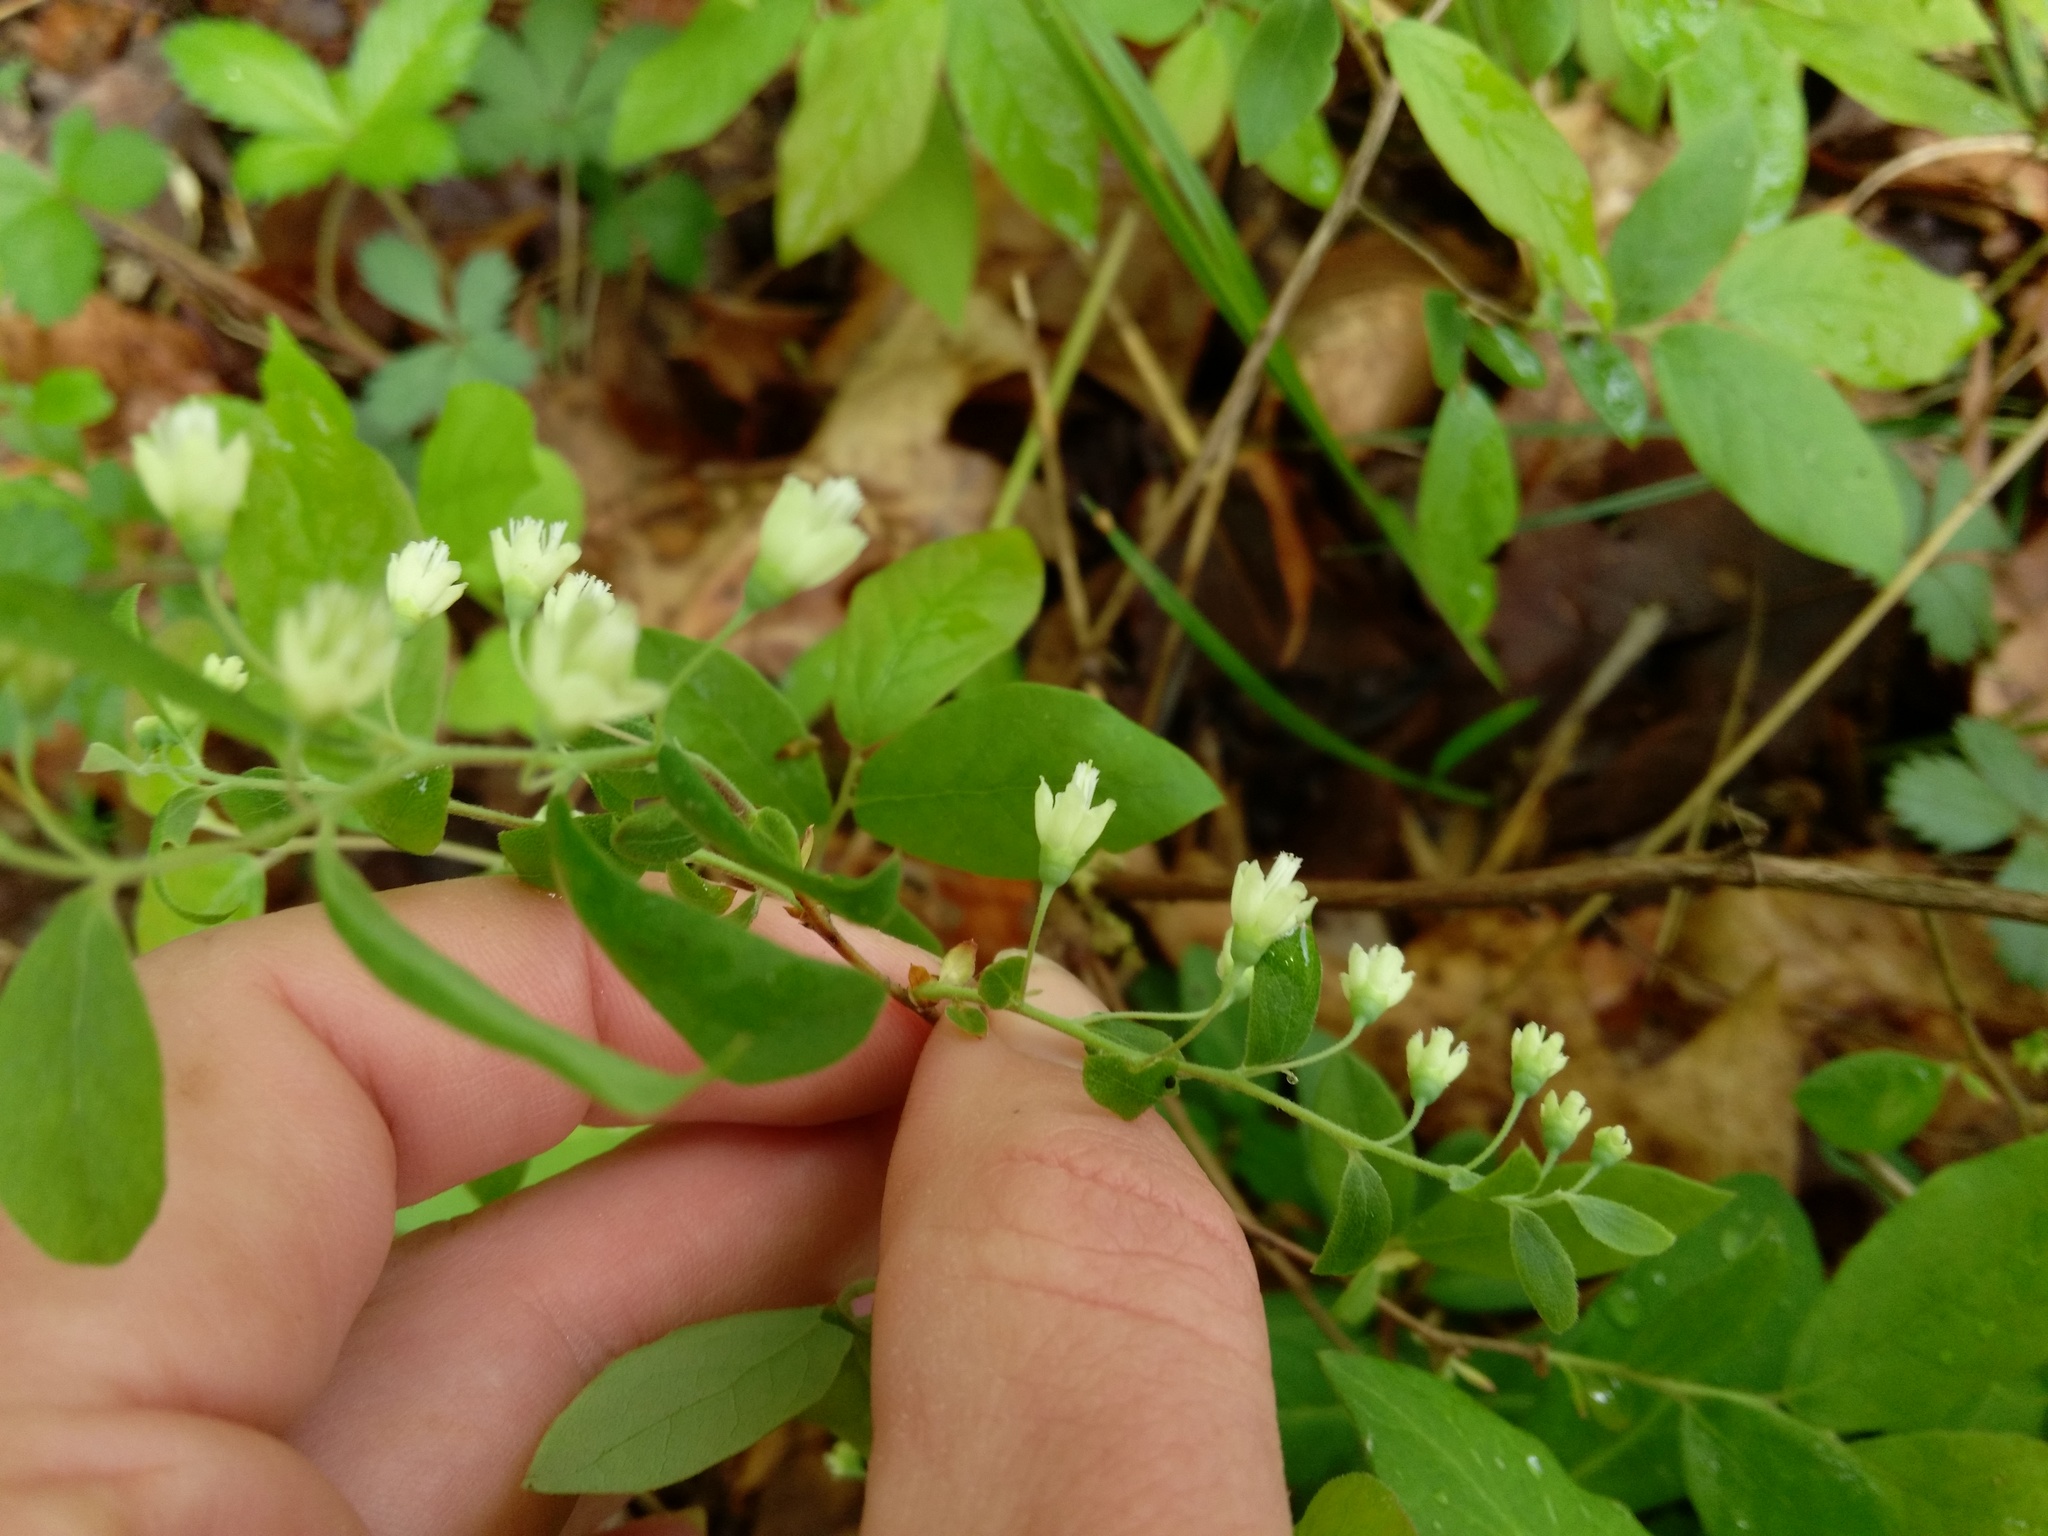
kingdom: Plantae
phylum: Tracheophyta
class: Magnoliopsida
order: Ericales
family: Ericaceae
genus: Vaccinium
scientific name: Vaccinium stamineum
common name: Deerberry
